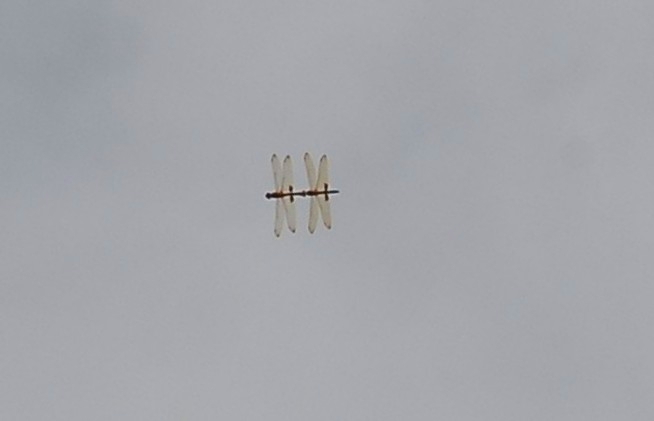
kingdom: Animalia
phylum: Arthropoda
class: Insecta
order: Odonata
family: Libellulidae
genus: Hydrobasileus
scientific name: Hydrobasileus croceus
